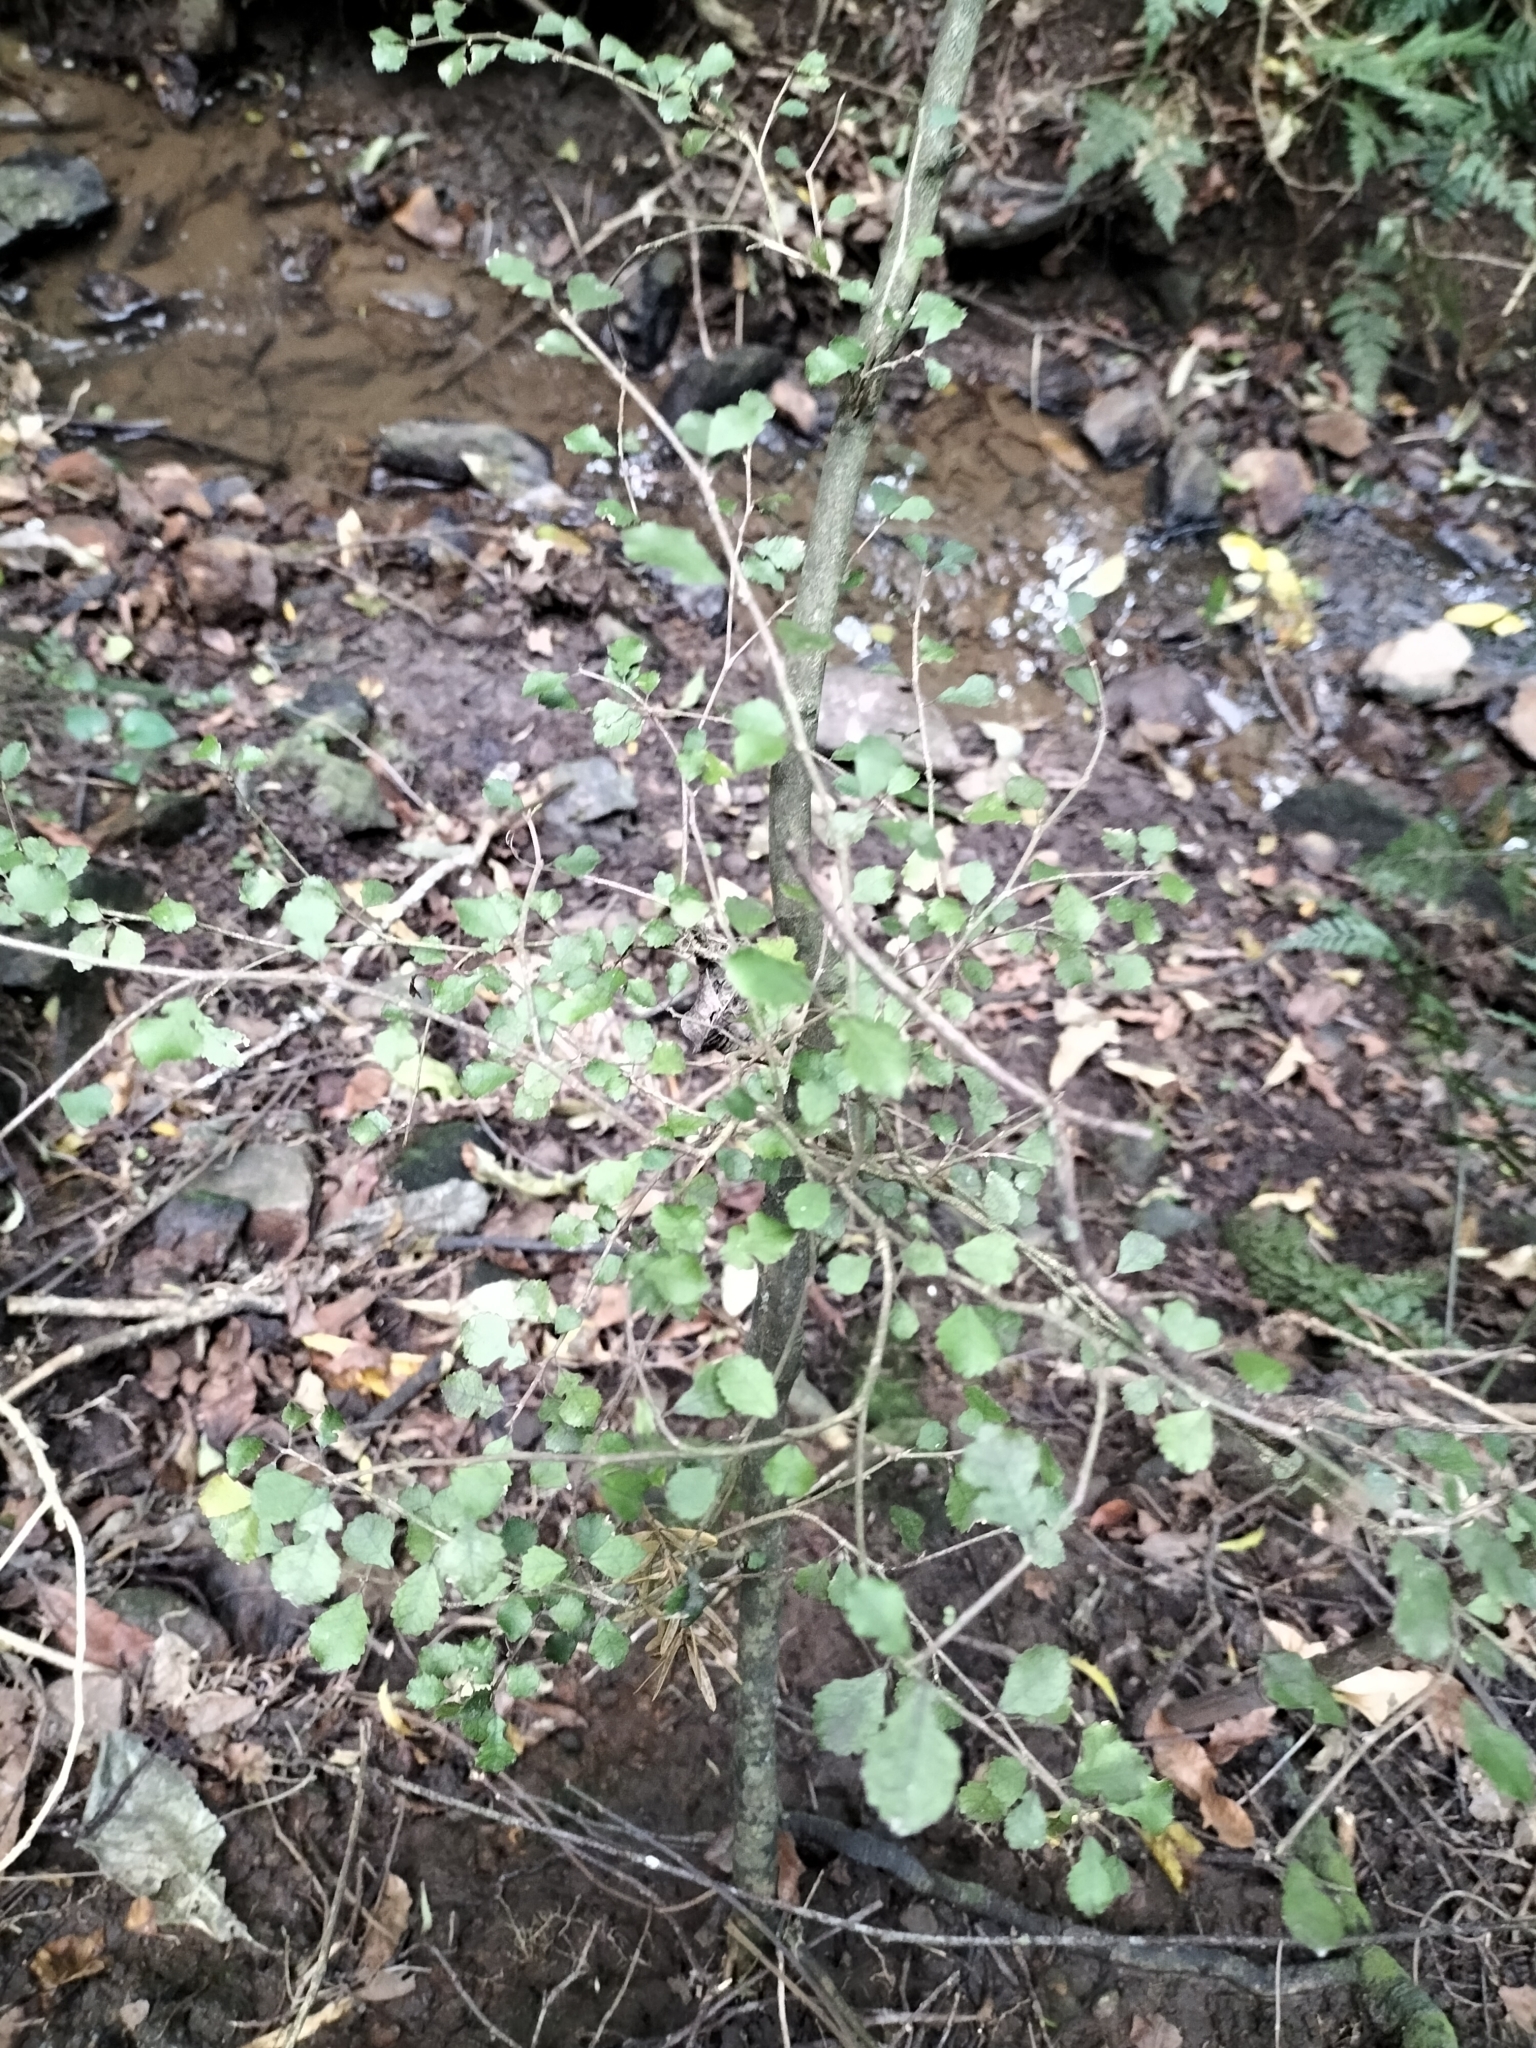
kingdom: Plantae
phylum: Tracheophyta
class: Magnoliopsida
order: Rosales
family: Moraceae
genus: Paratrophis
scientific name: Paratrophis microphylla
